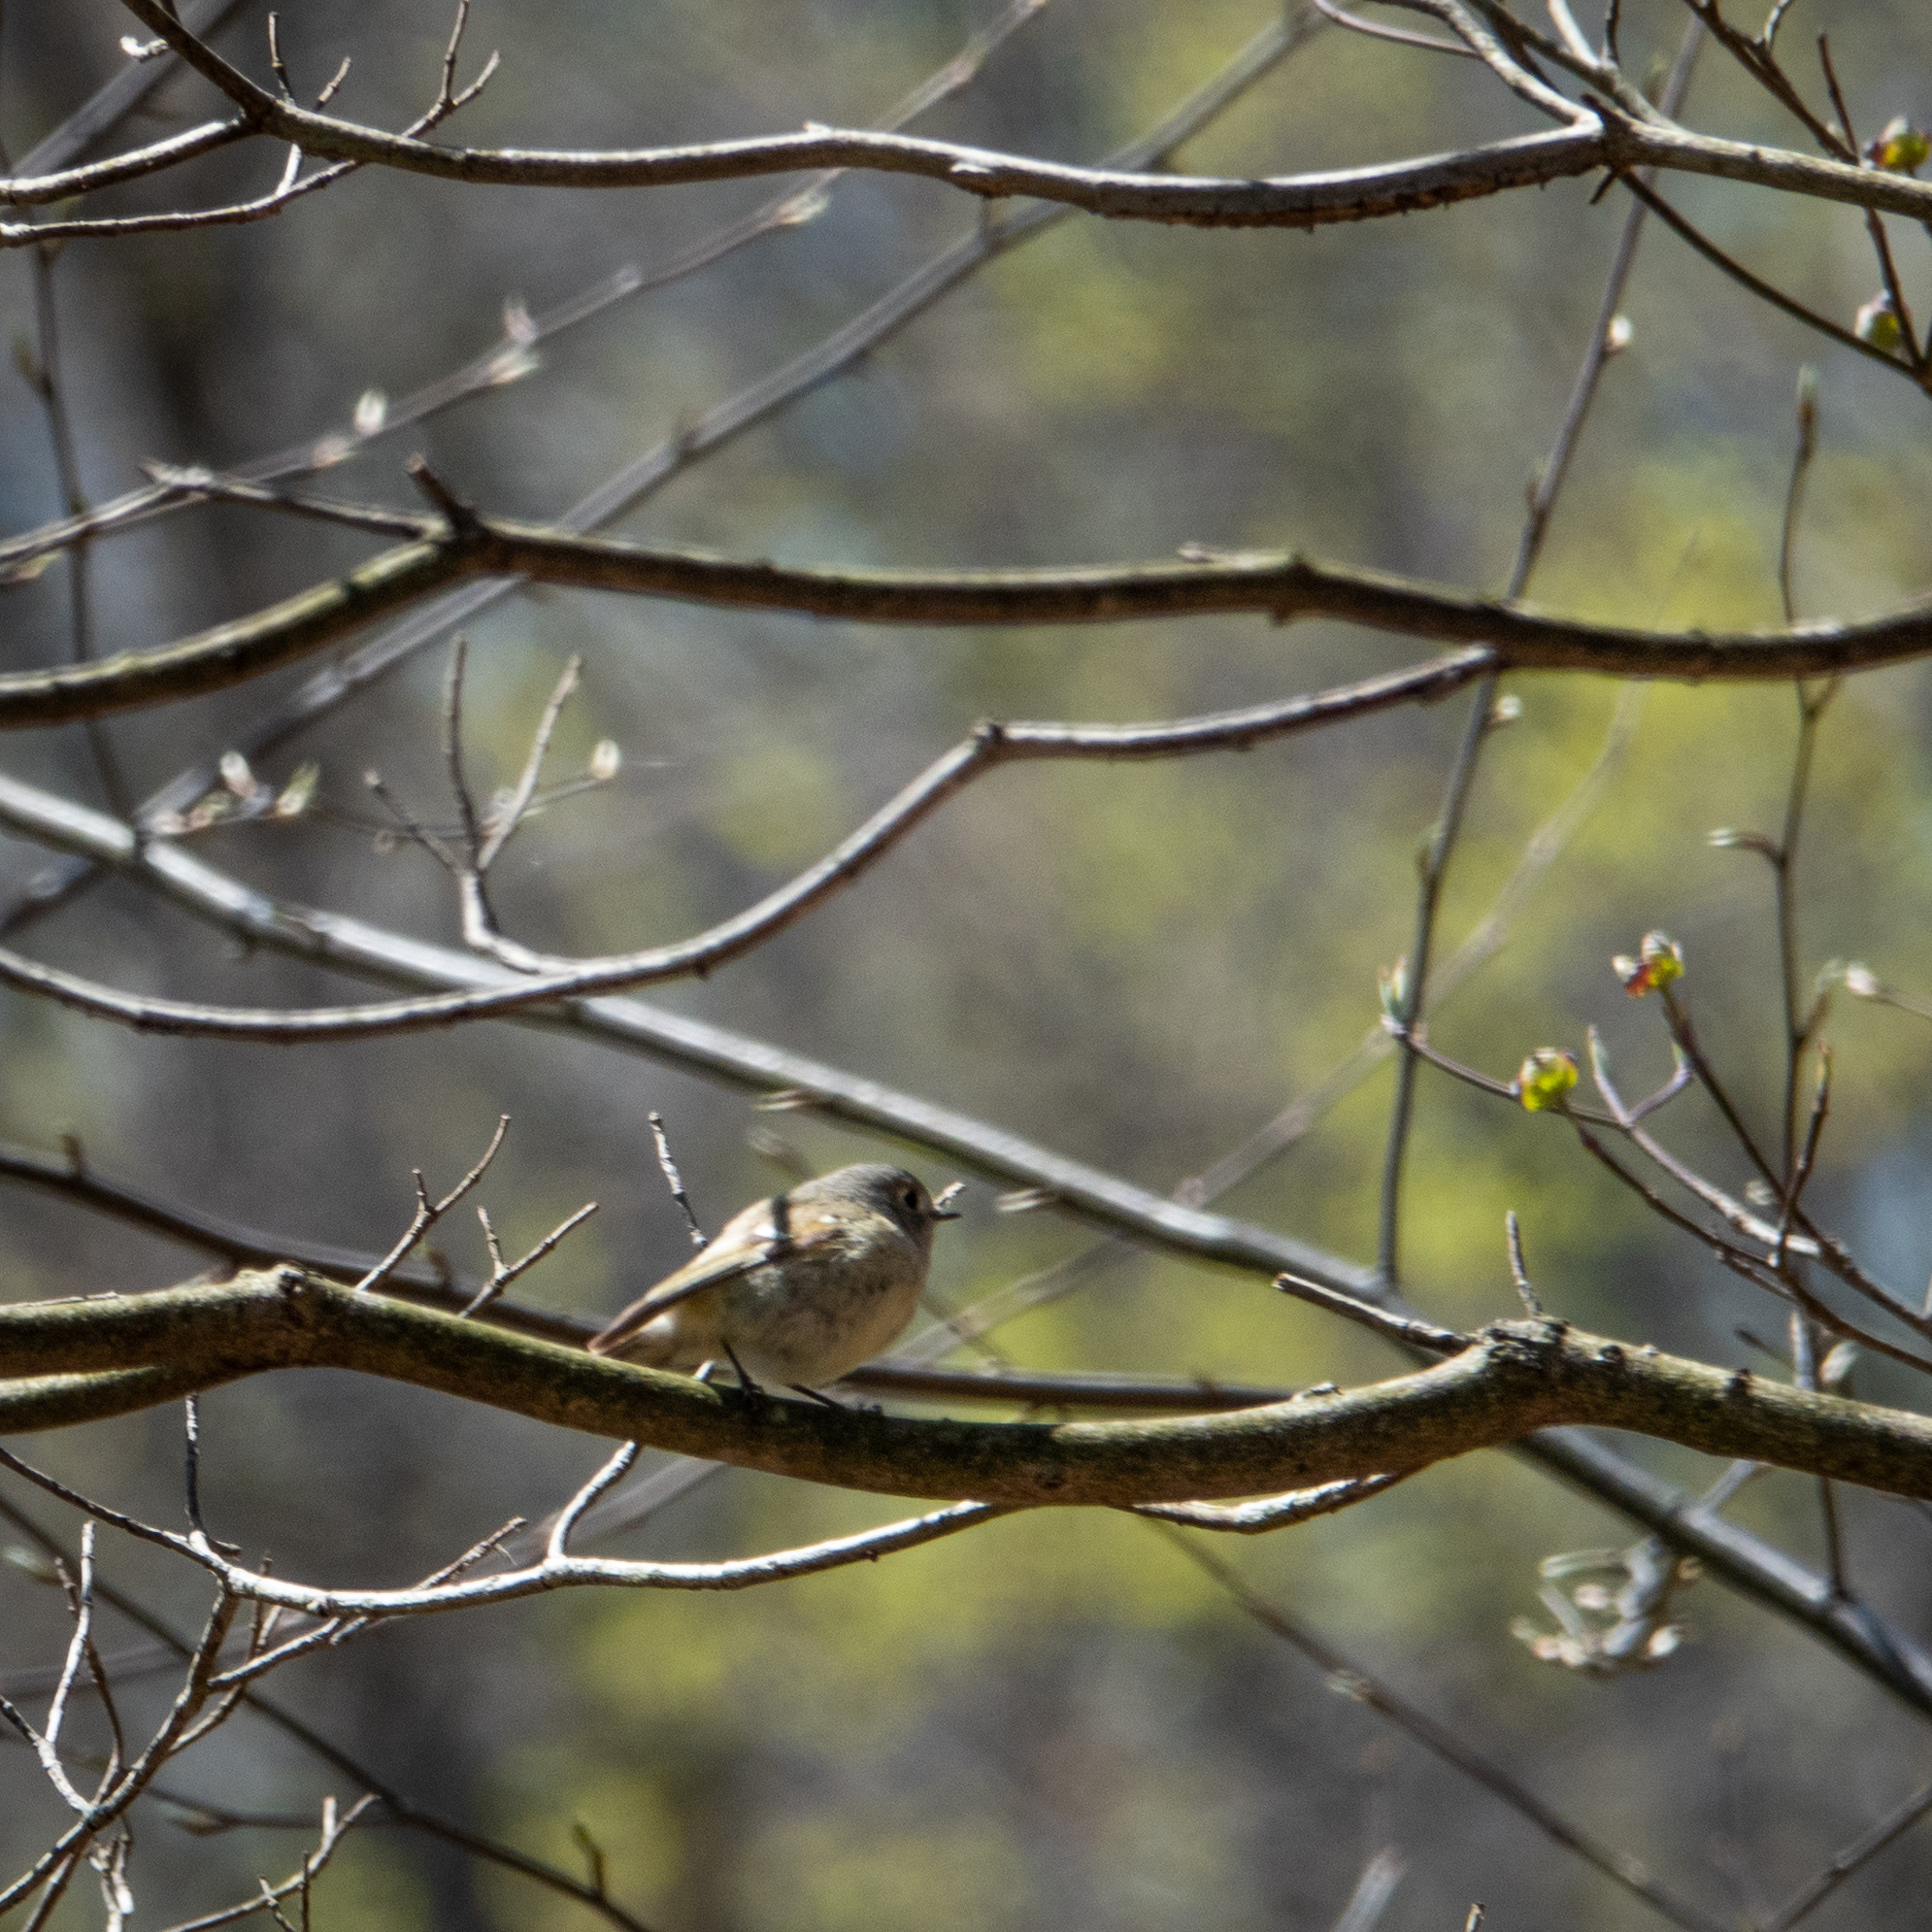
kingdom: Animalia
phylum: Chordata
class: Aves
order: Passeriformes
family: Regulidae
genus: Regulus
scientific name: Regulus calendula
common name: Ruby-crowned kinglet
